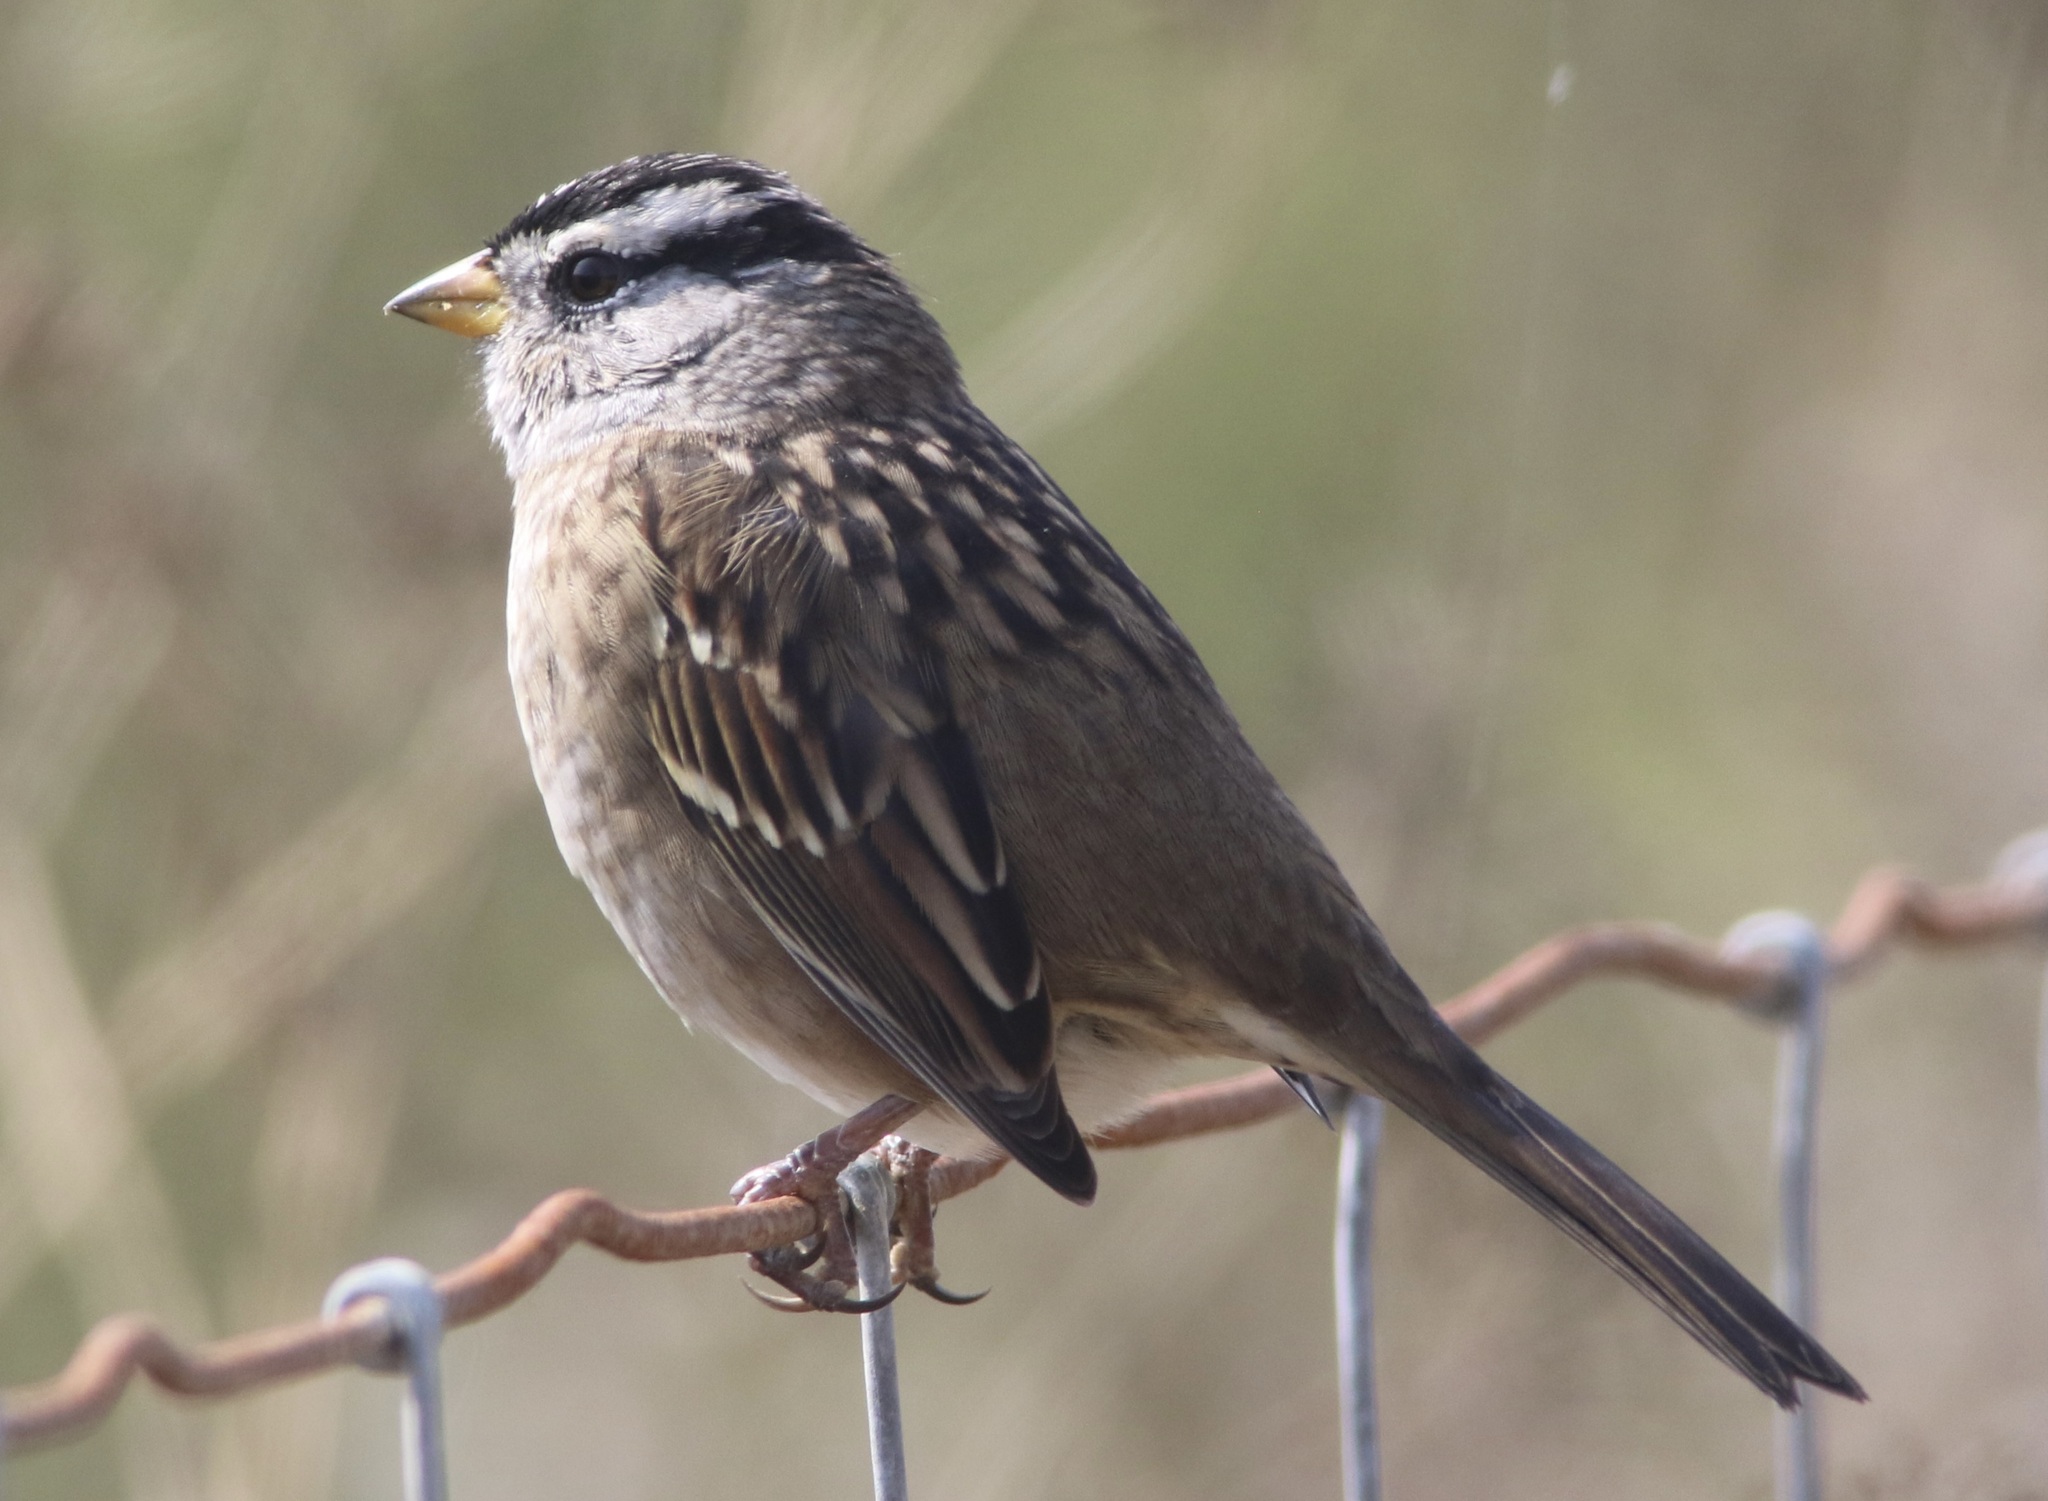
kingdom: Animalia
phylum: Chordata
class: Aves
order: Passeriformes
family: Passerellidae
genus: Zonotrichia
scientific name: Zonotrichia leucophrys
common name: White-crowned sparrow
